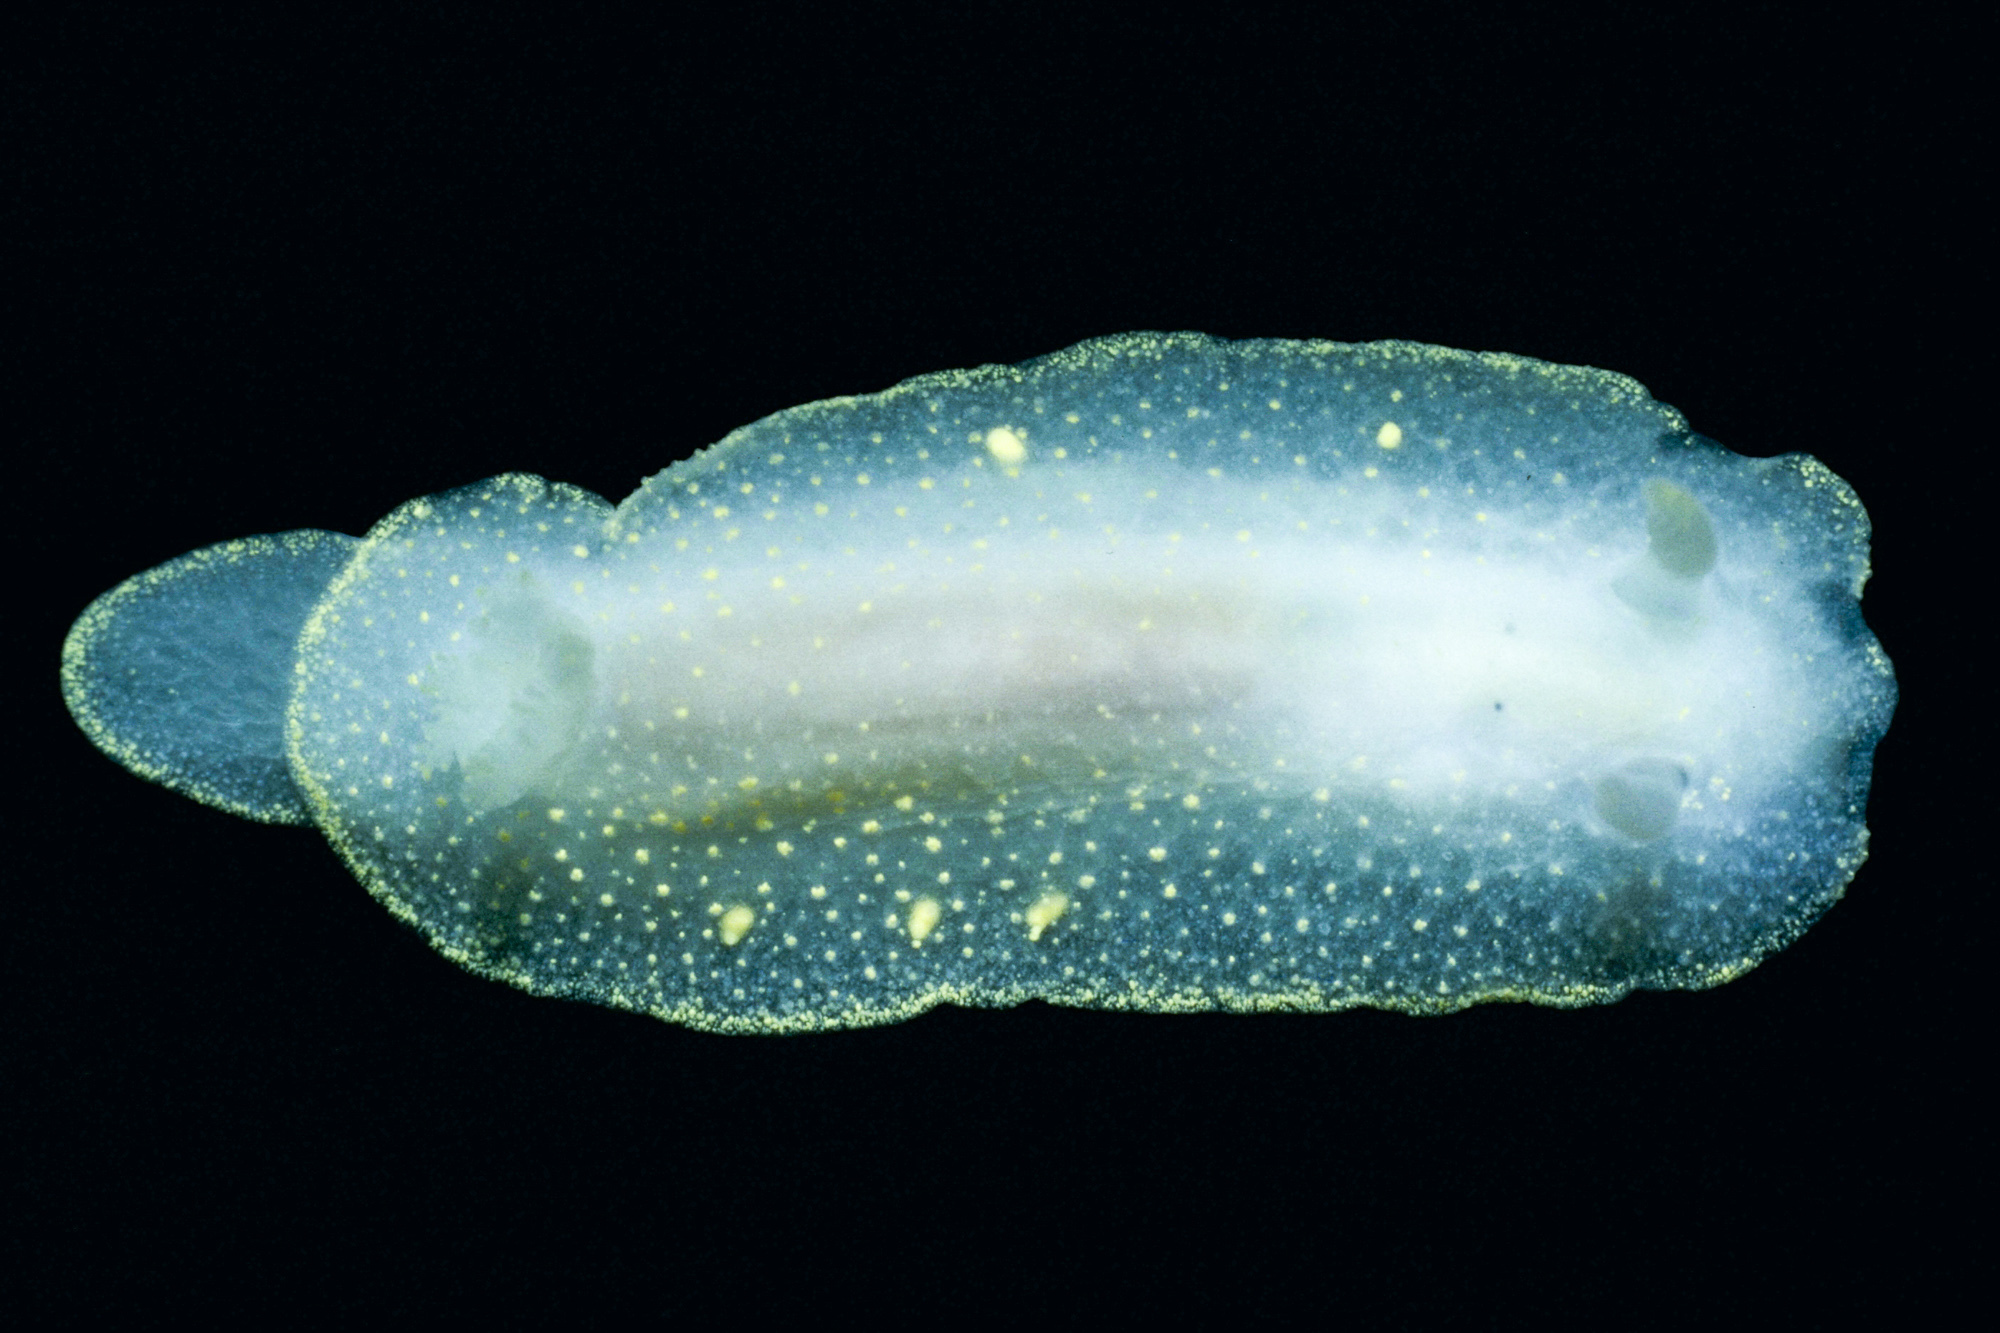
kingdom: Animalia
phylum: Mollusca
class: Gastropoda
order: Nudibranchia
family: Cadlinidae
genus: Cadlina
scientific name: Cadlina laevis
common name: White atlantic cadlina
